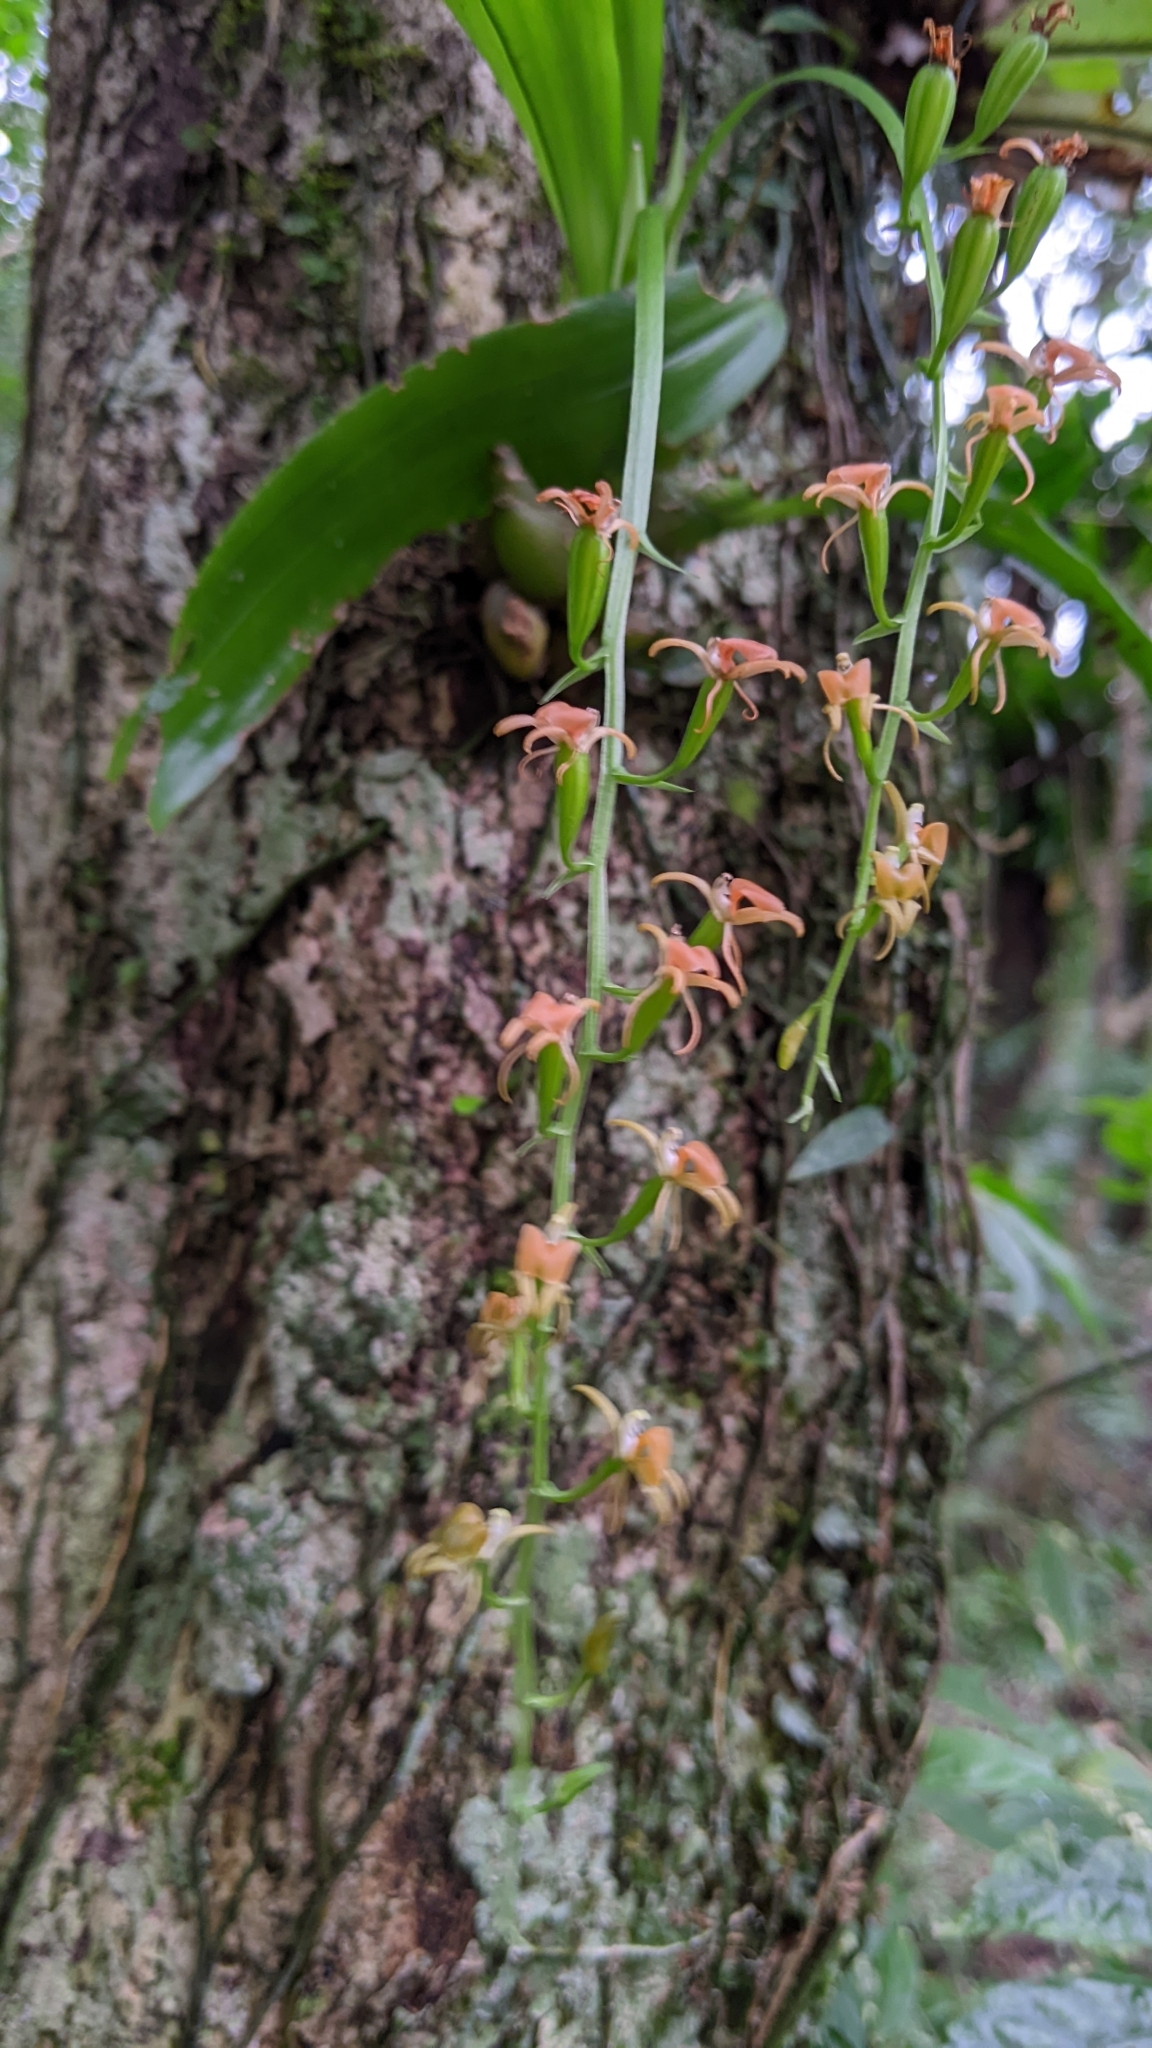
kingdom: Plantae
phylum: Tracheophyta
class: Liliopsida
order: Asparagales
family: Orchidaceae
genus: Liparis
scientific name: Liparis bootanensis
